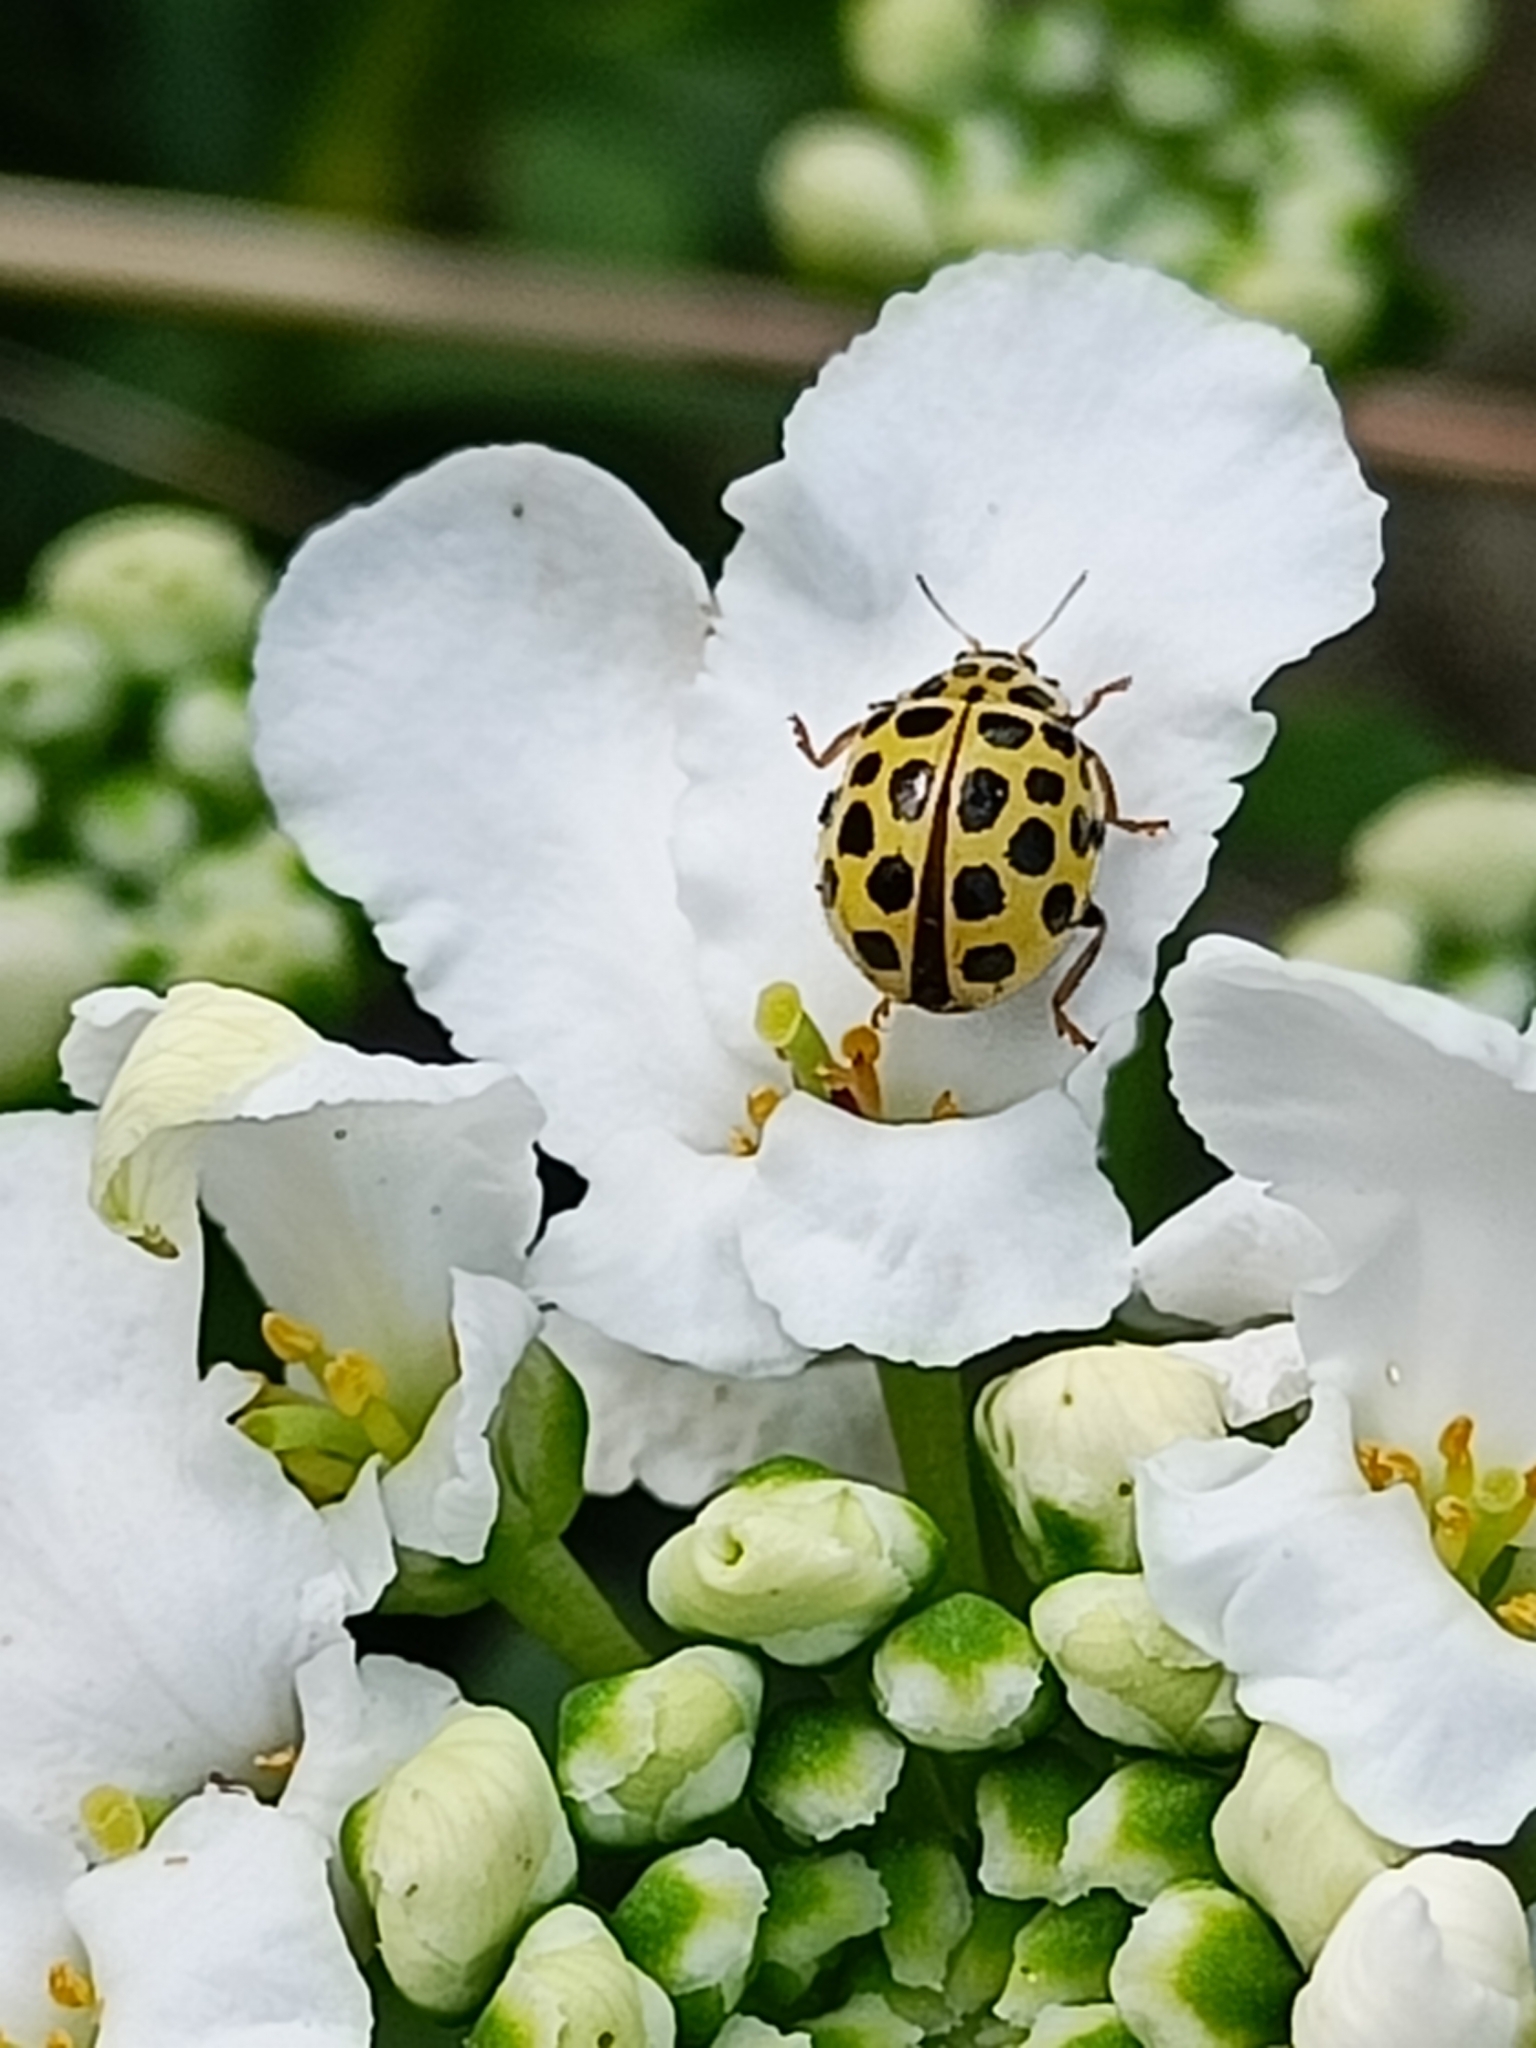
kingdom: Animalia
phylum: Arthropoda
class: Insecta
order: Coleoptera
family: Coccinellidae
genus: Psyllobora
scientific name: Psyllobora vigintiduopunctata
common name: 22-spot ladybird
